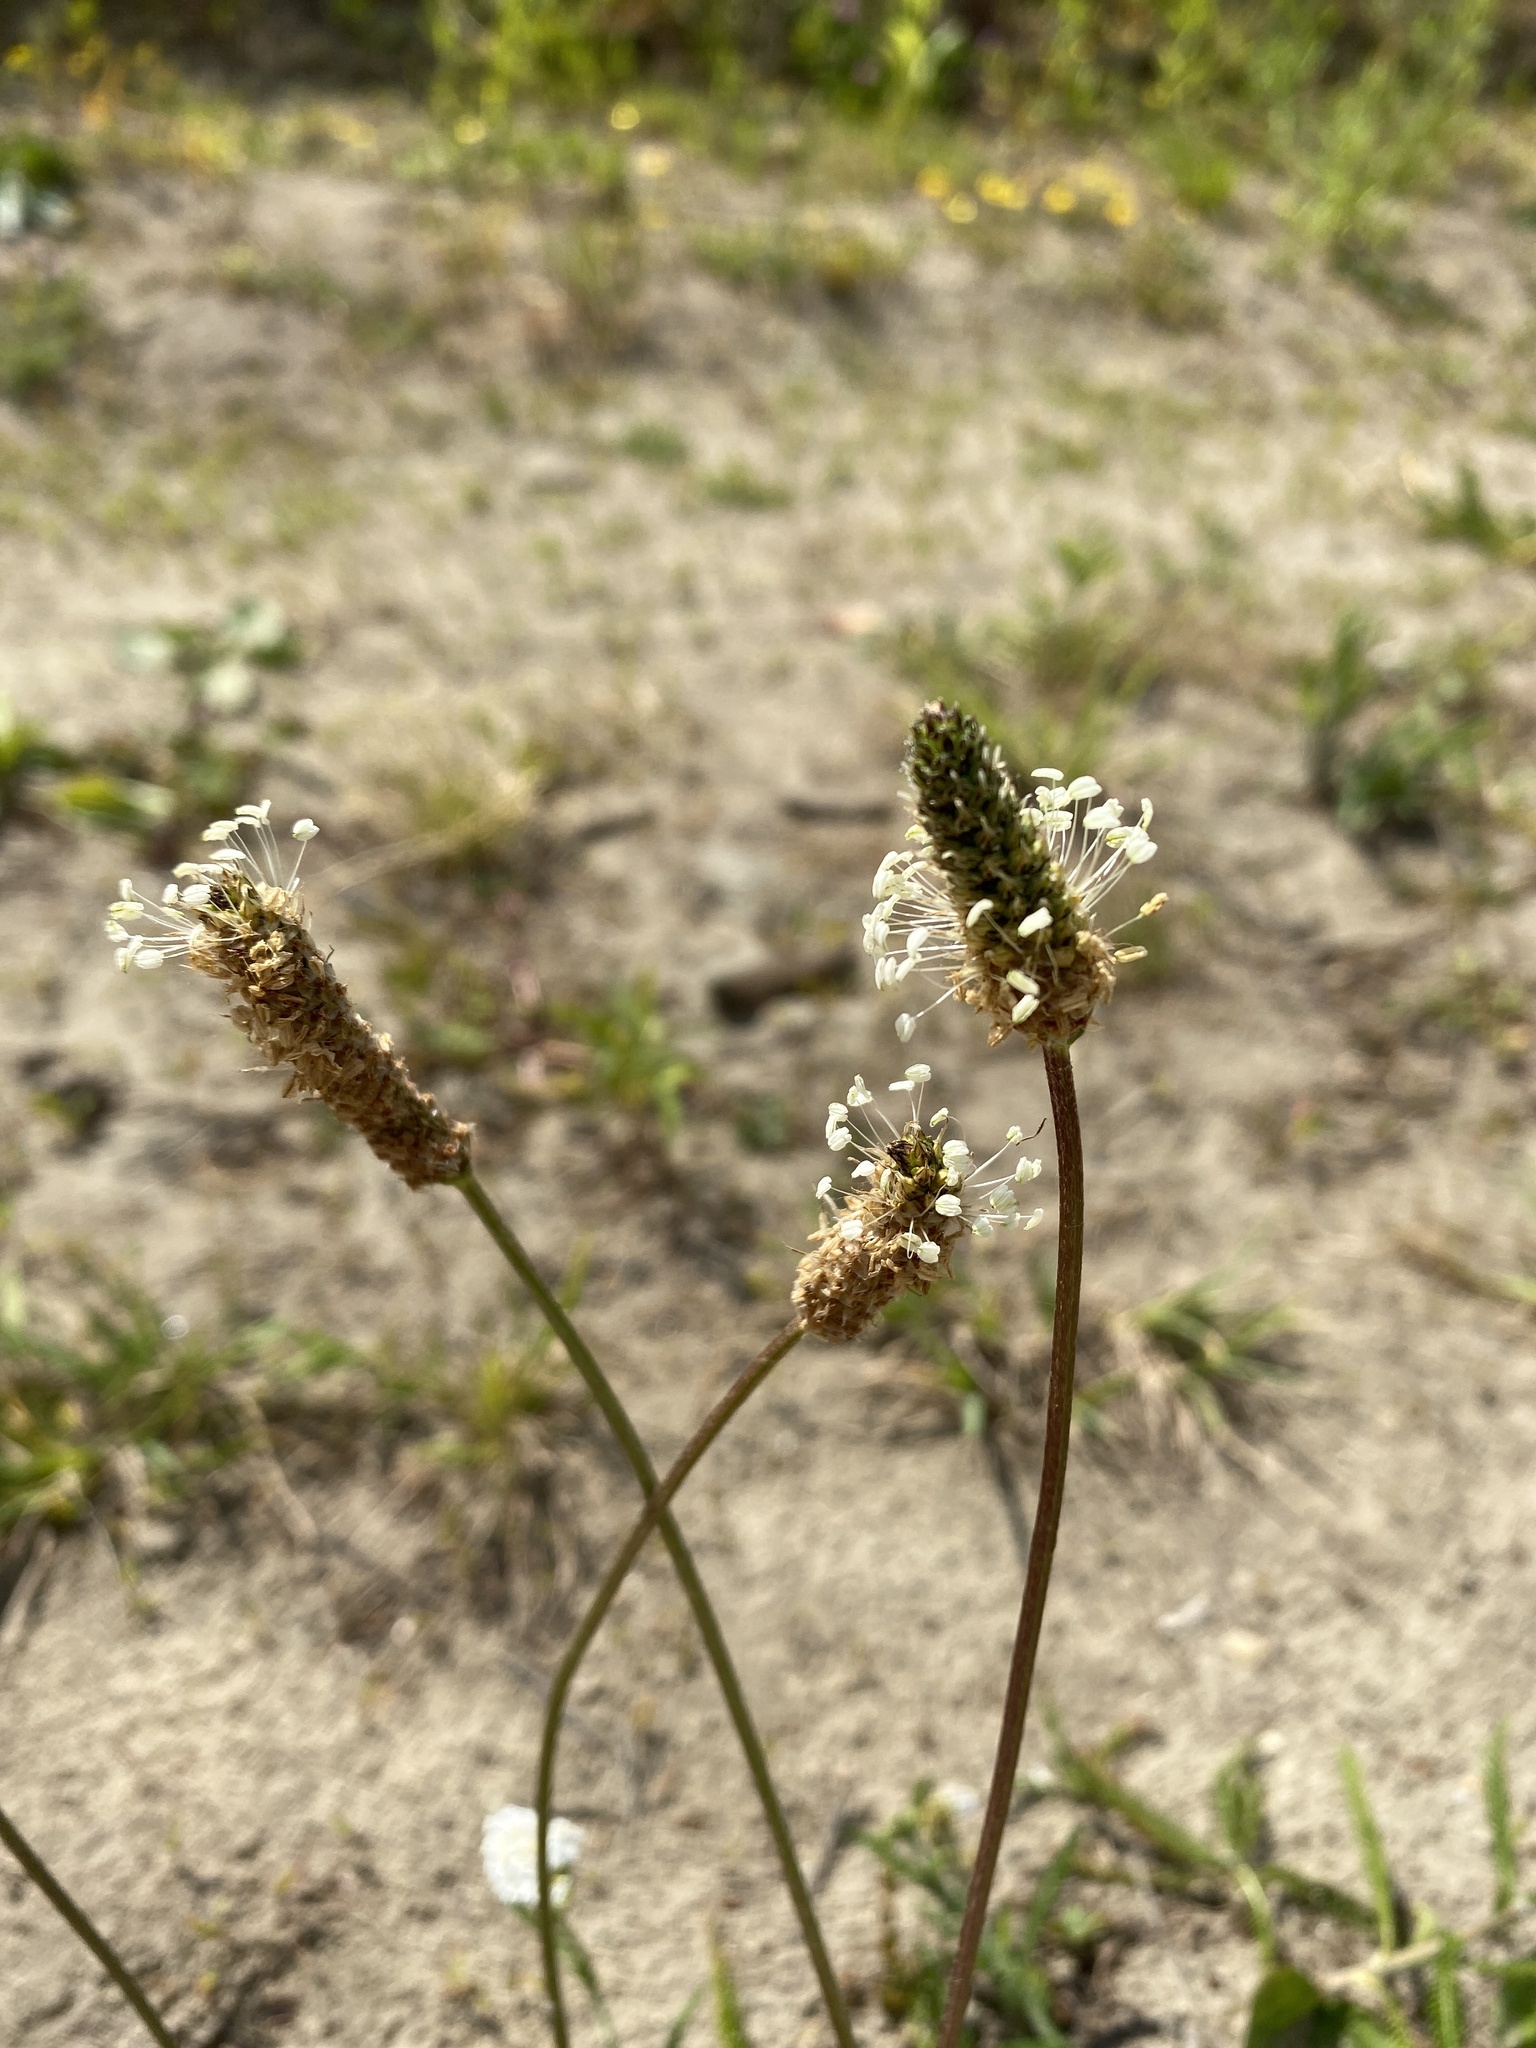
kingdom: Plantae
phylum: Tracheophyta
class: Magnoliopsida
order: Lamiales
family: Plantaginaceae
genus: Plantago
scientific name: Plantago lanceolata
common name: Ribwort plantain
